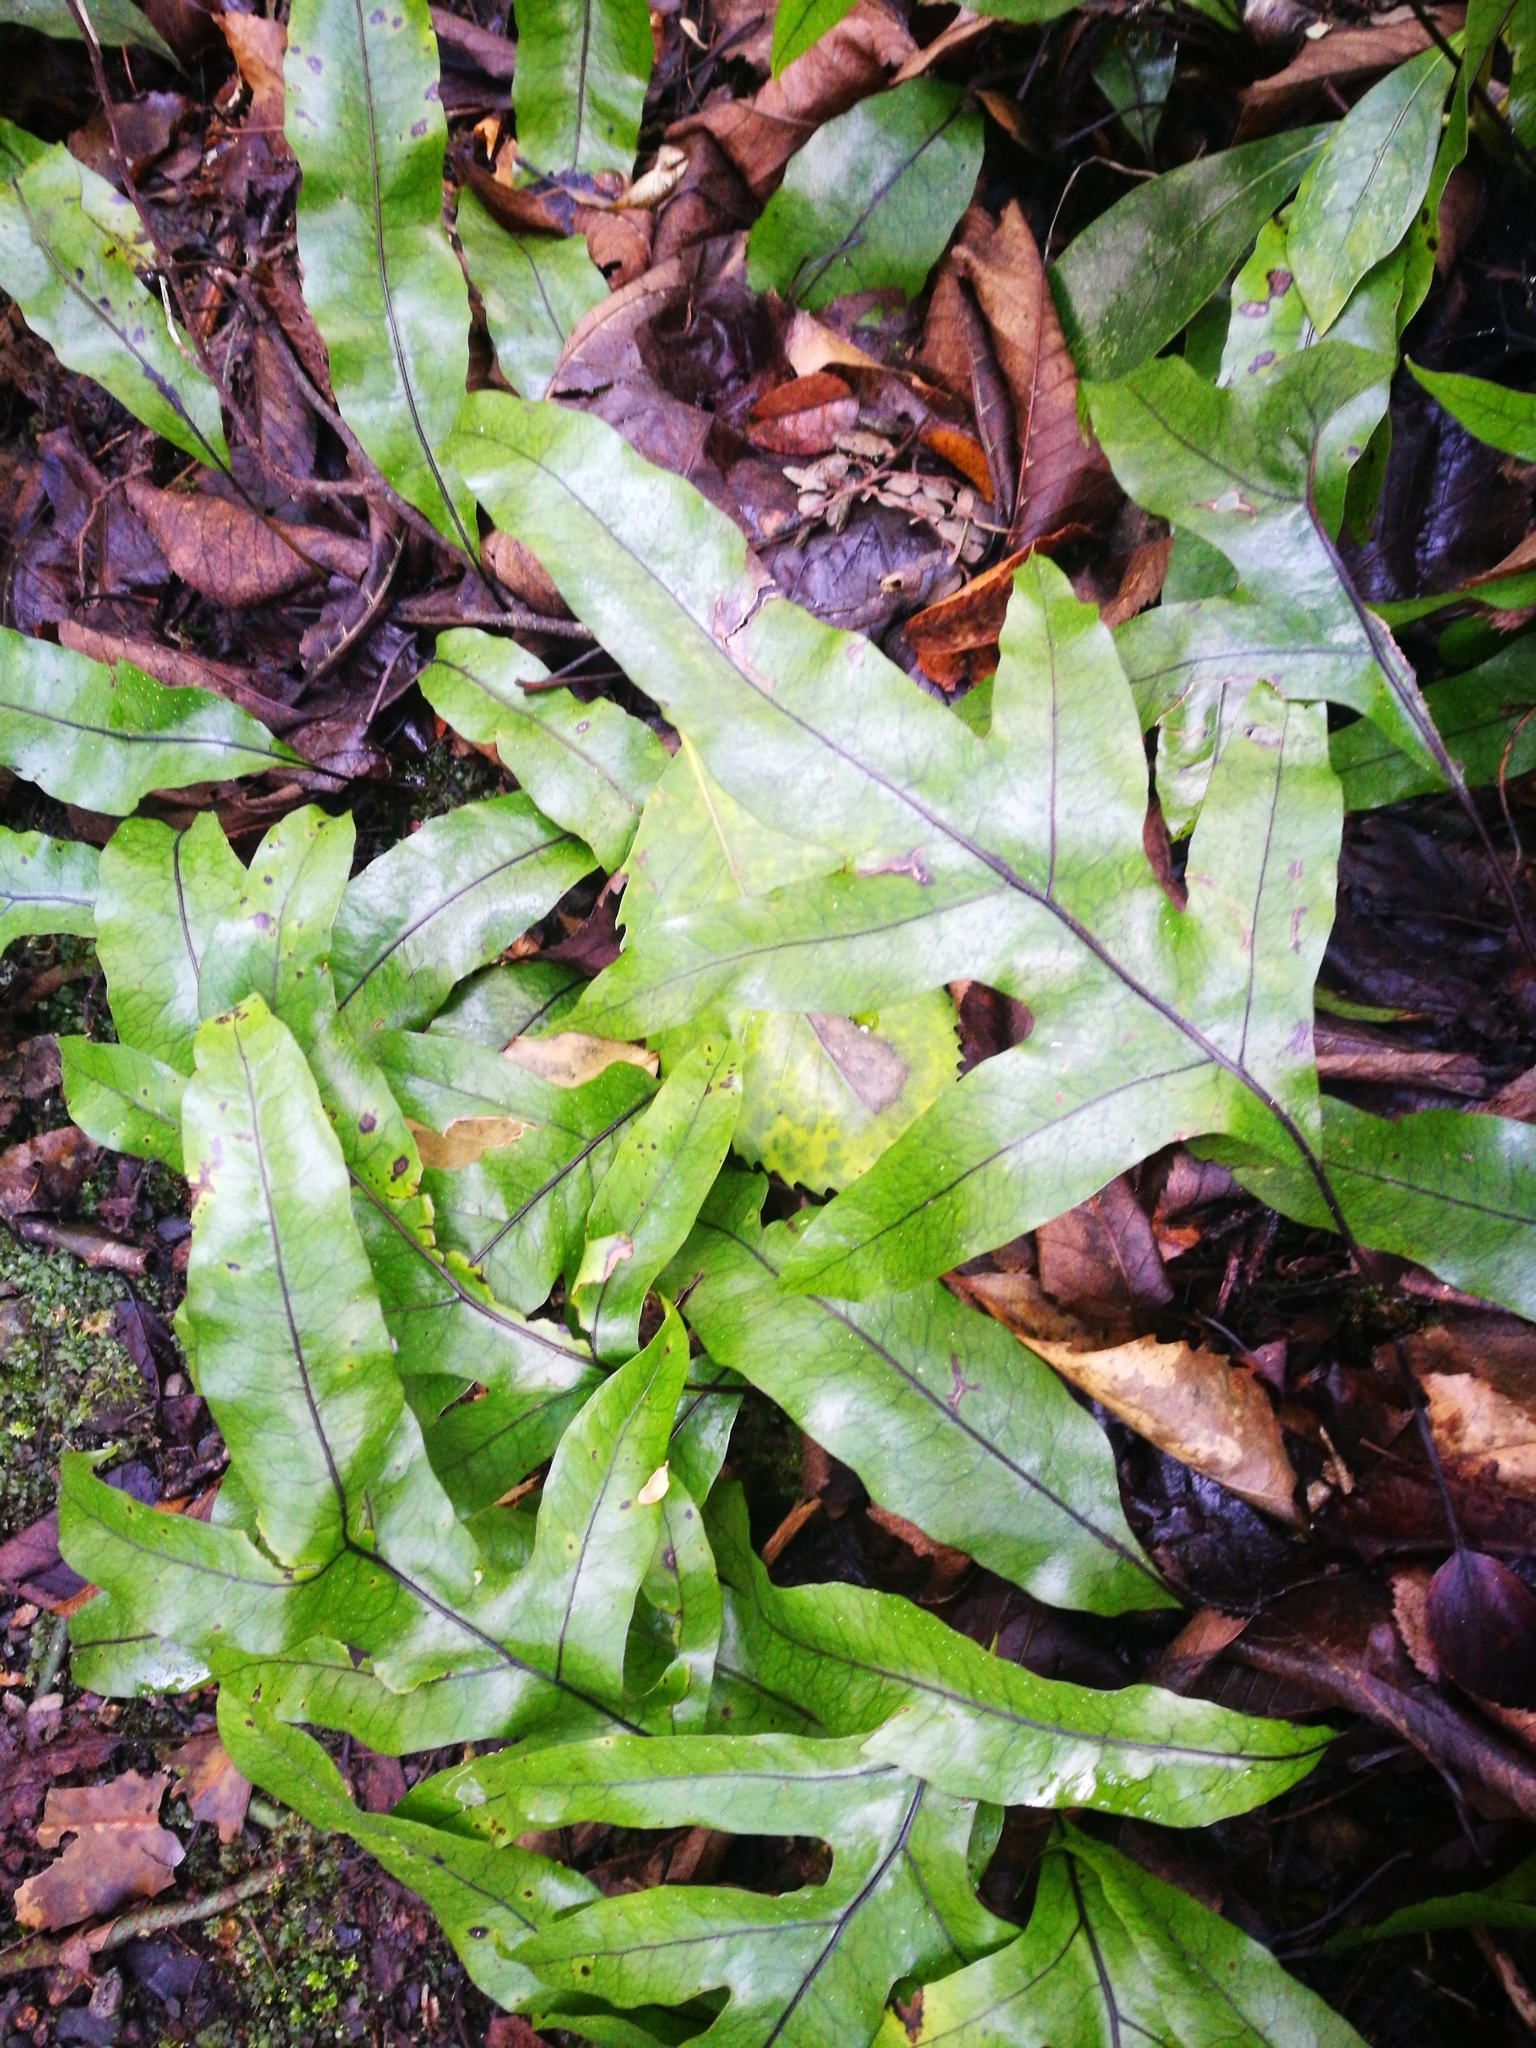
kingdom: Plantae
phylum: Tracheophyta
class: Polypodiopsida
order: Polypodiales
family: Polypodiaceae
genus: Lecanopteris
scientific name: Lecanopteris pustulata
